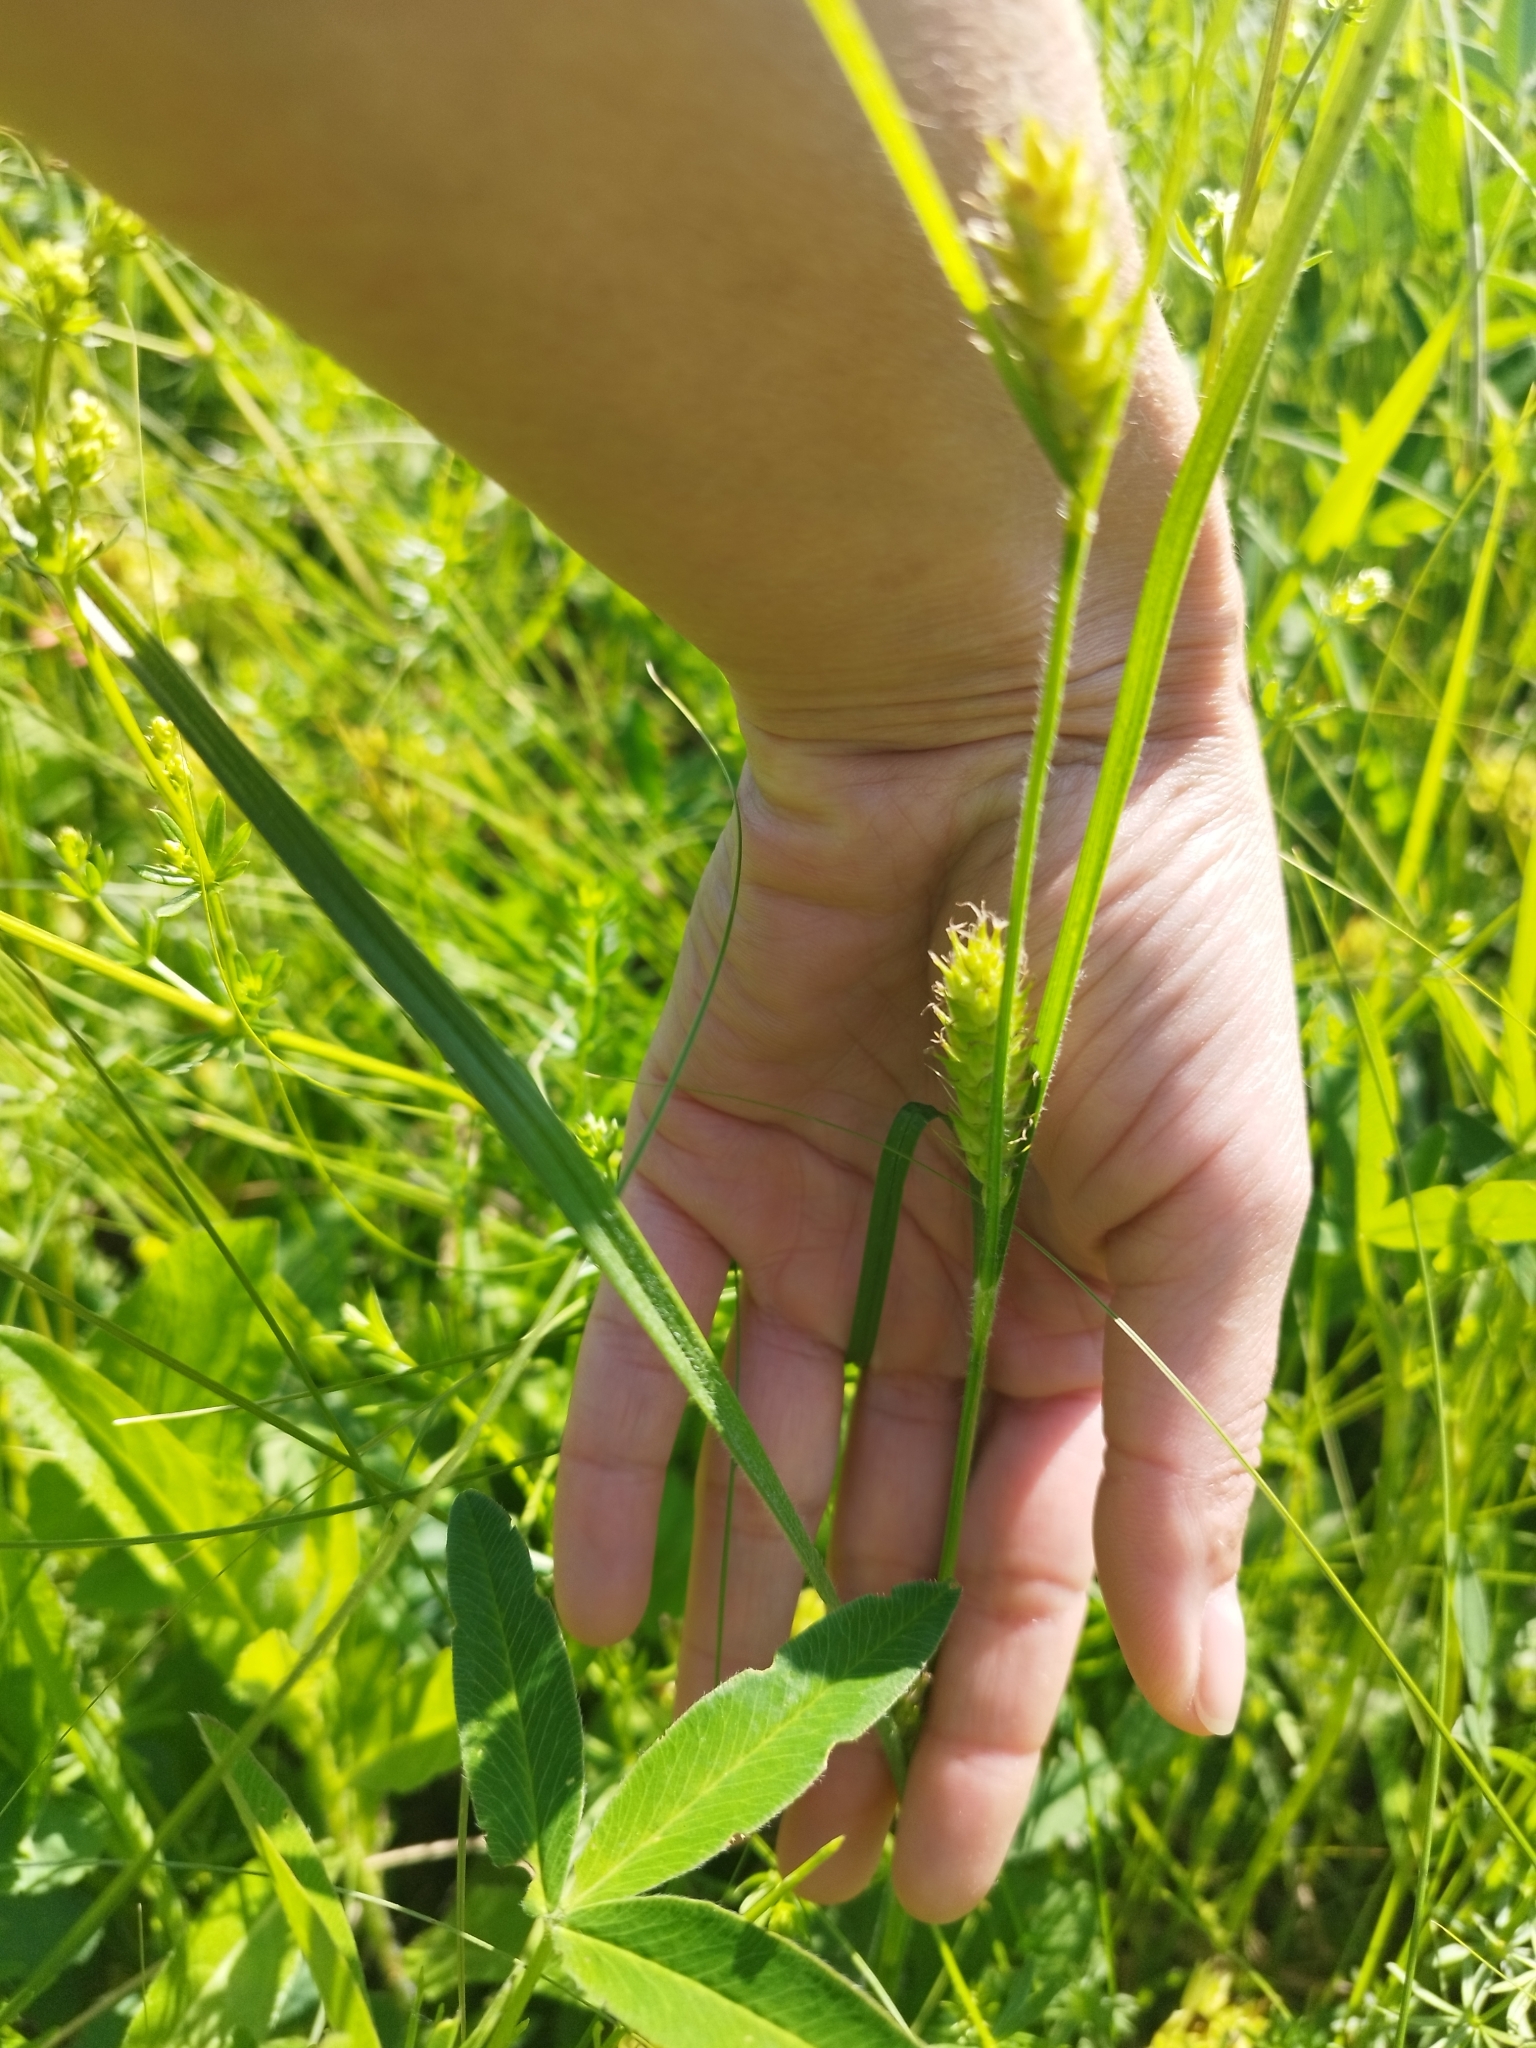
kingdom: Plantae
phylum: Tracheophyta
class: Liliopsida
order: Poales
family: Cyperaceae
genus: Carex
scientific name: Carex hirta
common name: Hairy sedge
